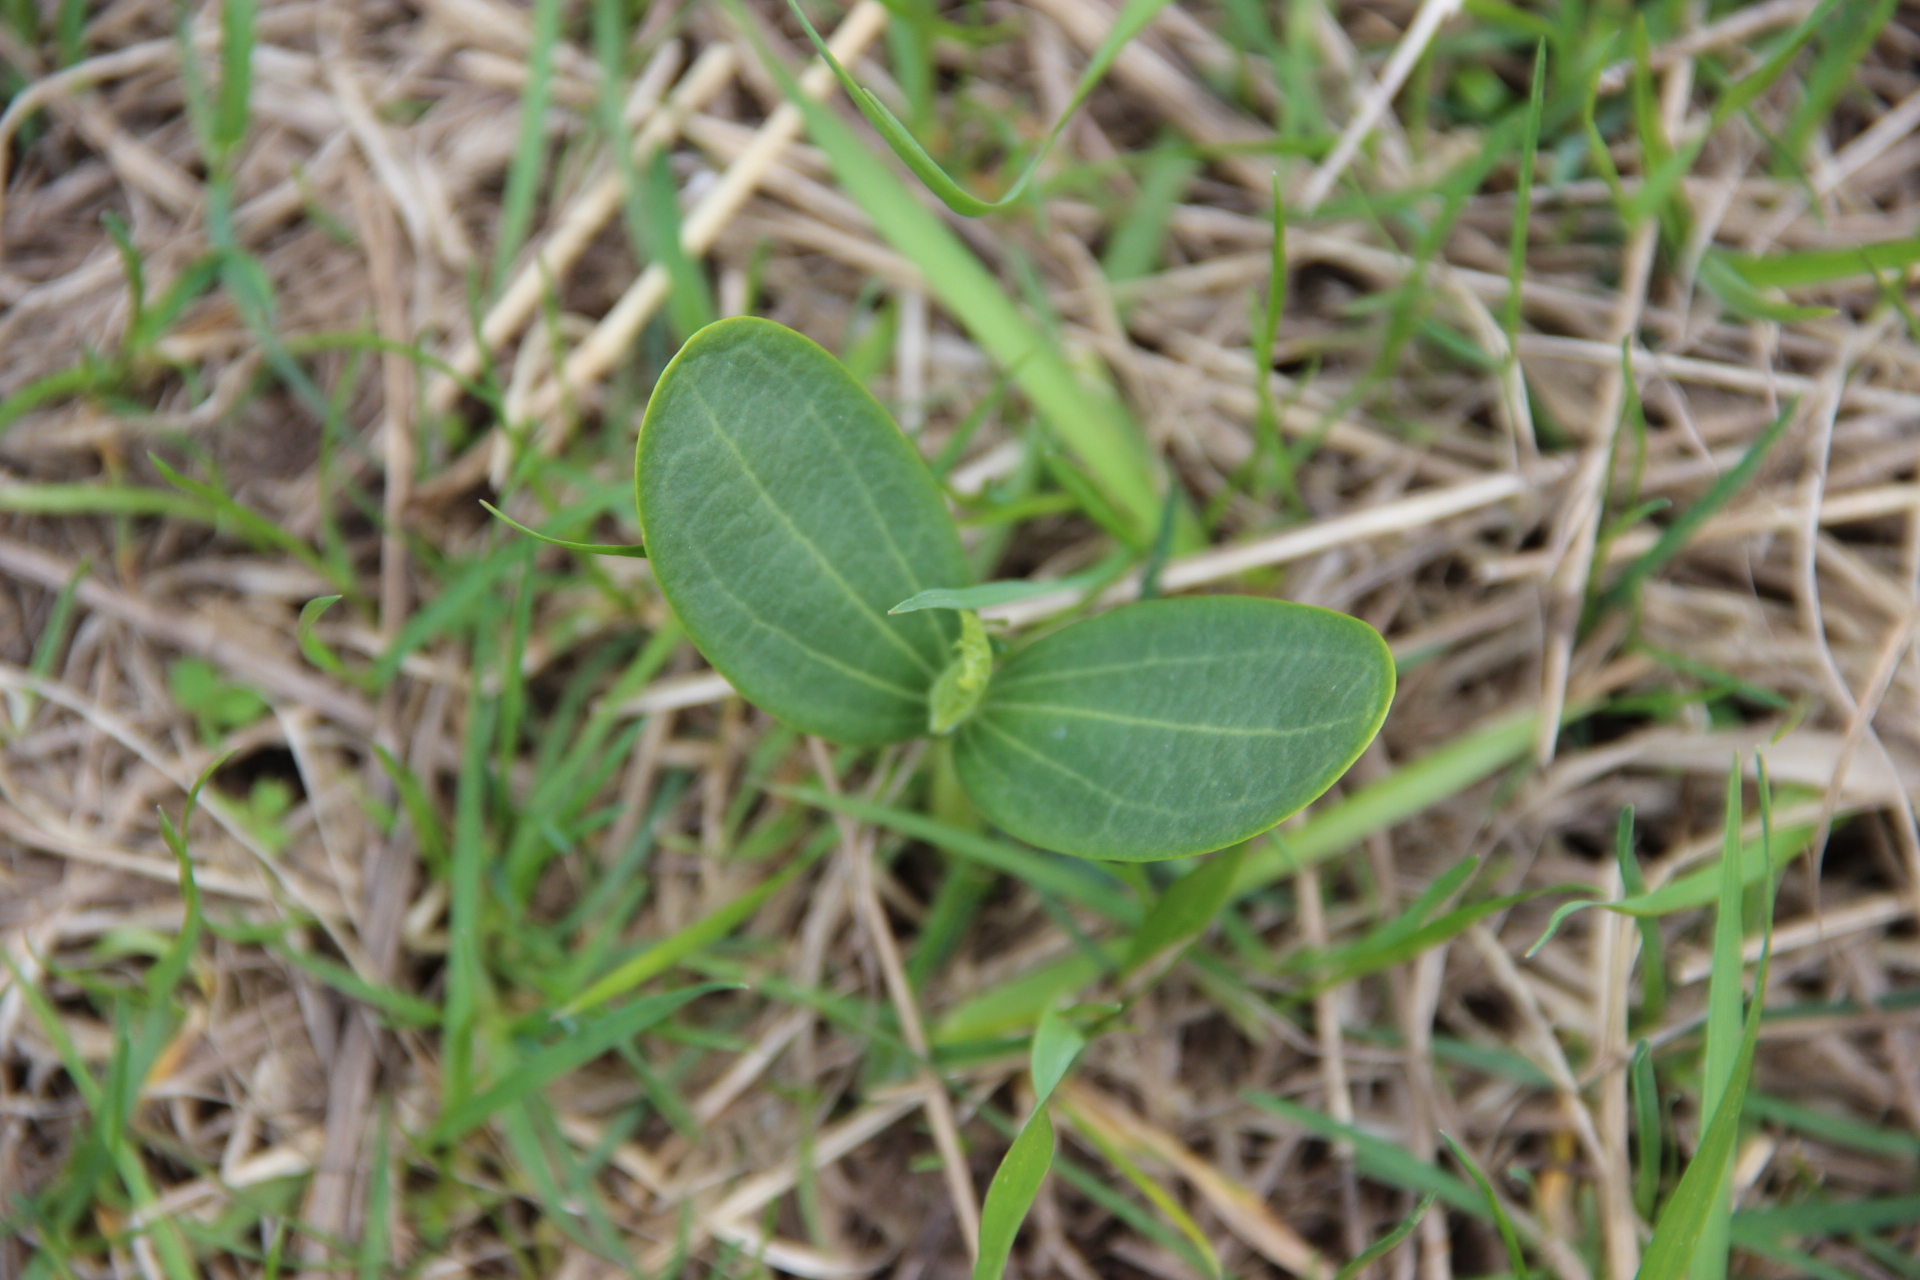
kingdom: Plantae
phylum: Tracheophyta
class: Magnoliopsida
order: Cucurbitales
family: Cucurbitaceae
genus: Echinocystis
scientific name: Echinocystis lobata
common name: Wild cucumber
